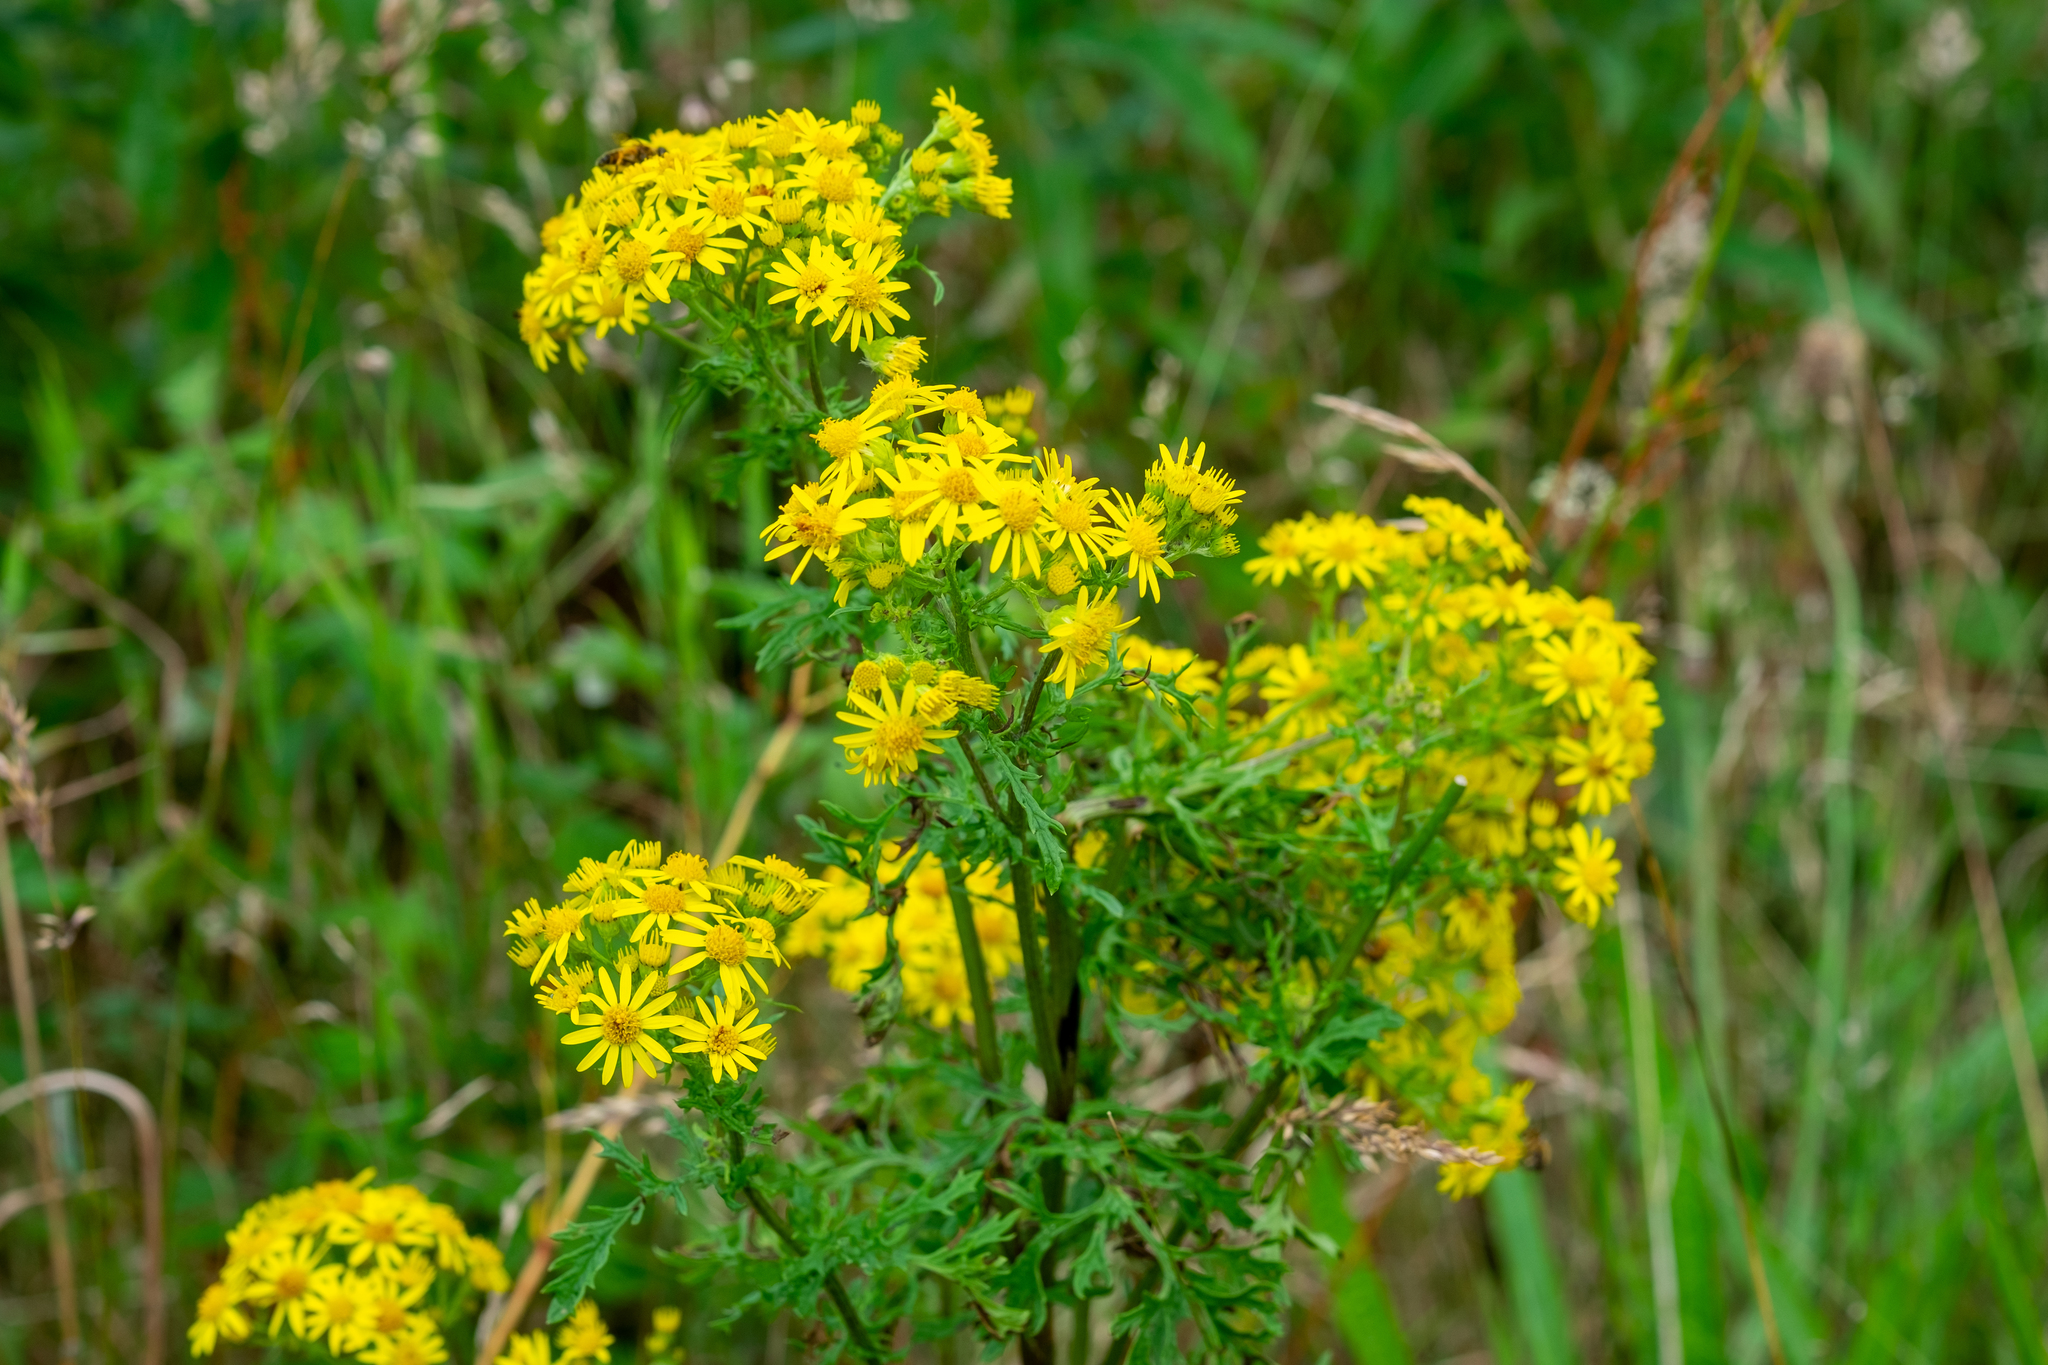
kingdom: Plantae
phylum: Tracheophyta
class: Magnoliopsida
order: Asterales
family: Asteraceae
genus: Jacobaea
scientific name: Jacobaea vulgaris
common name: Stinking willie
